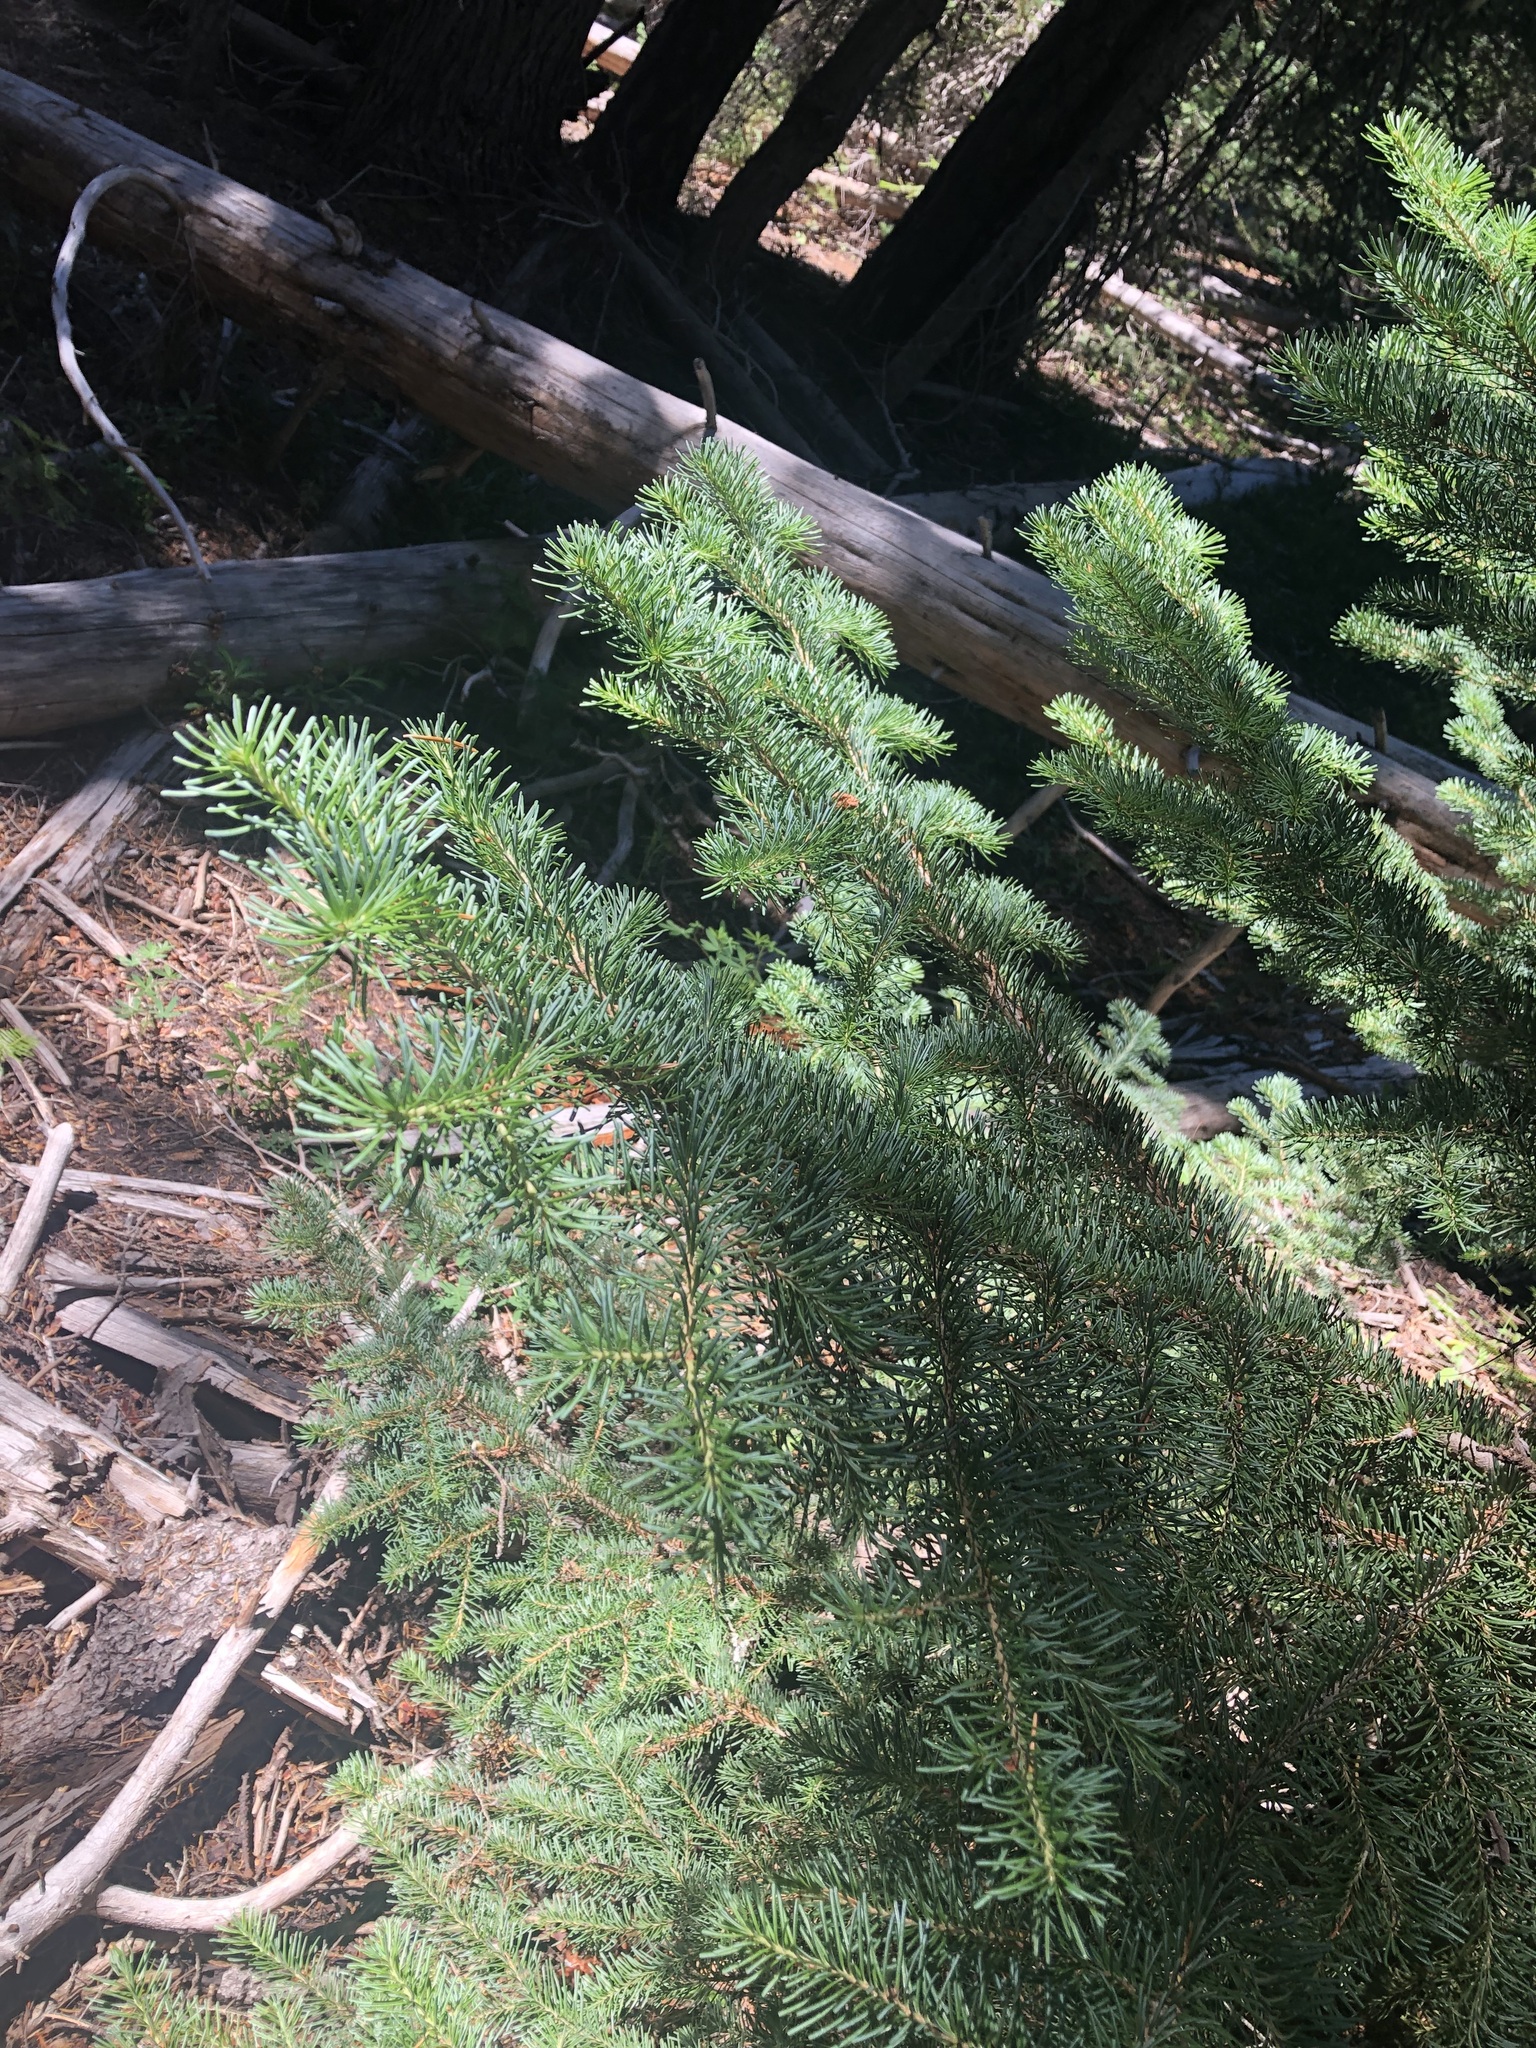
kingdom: Plantae
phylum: Tracheophyta
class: Pinopsida
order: Pinales
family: Pinaceae
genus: Abies
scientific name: Abies lasiocarpa
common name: Subalpine fir
